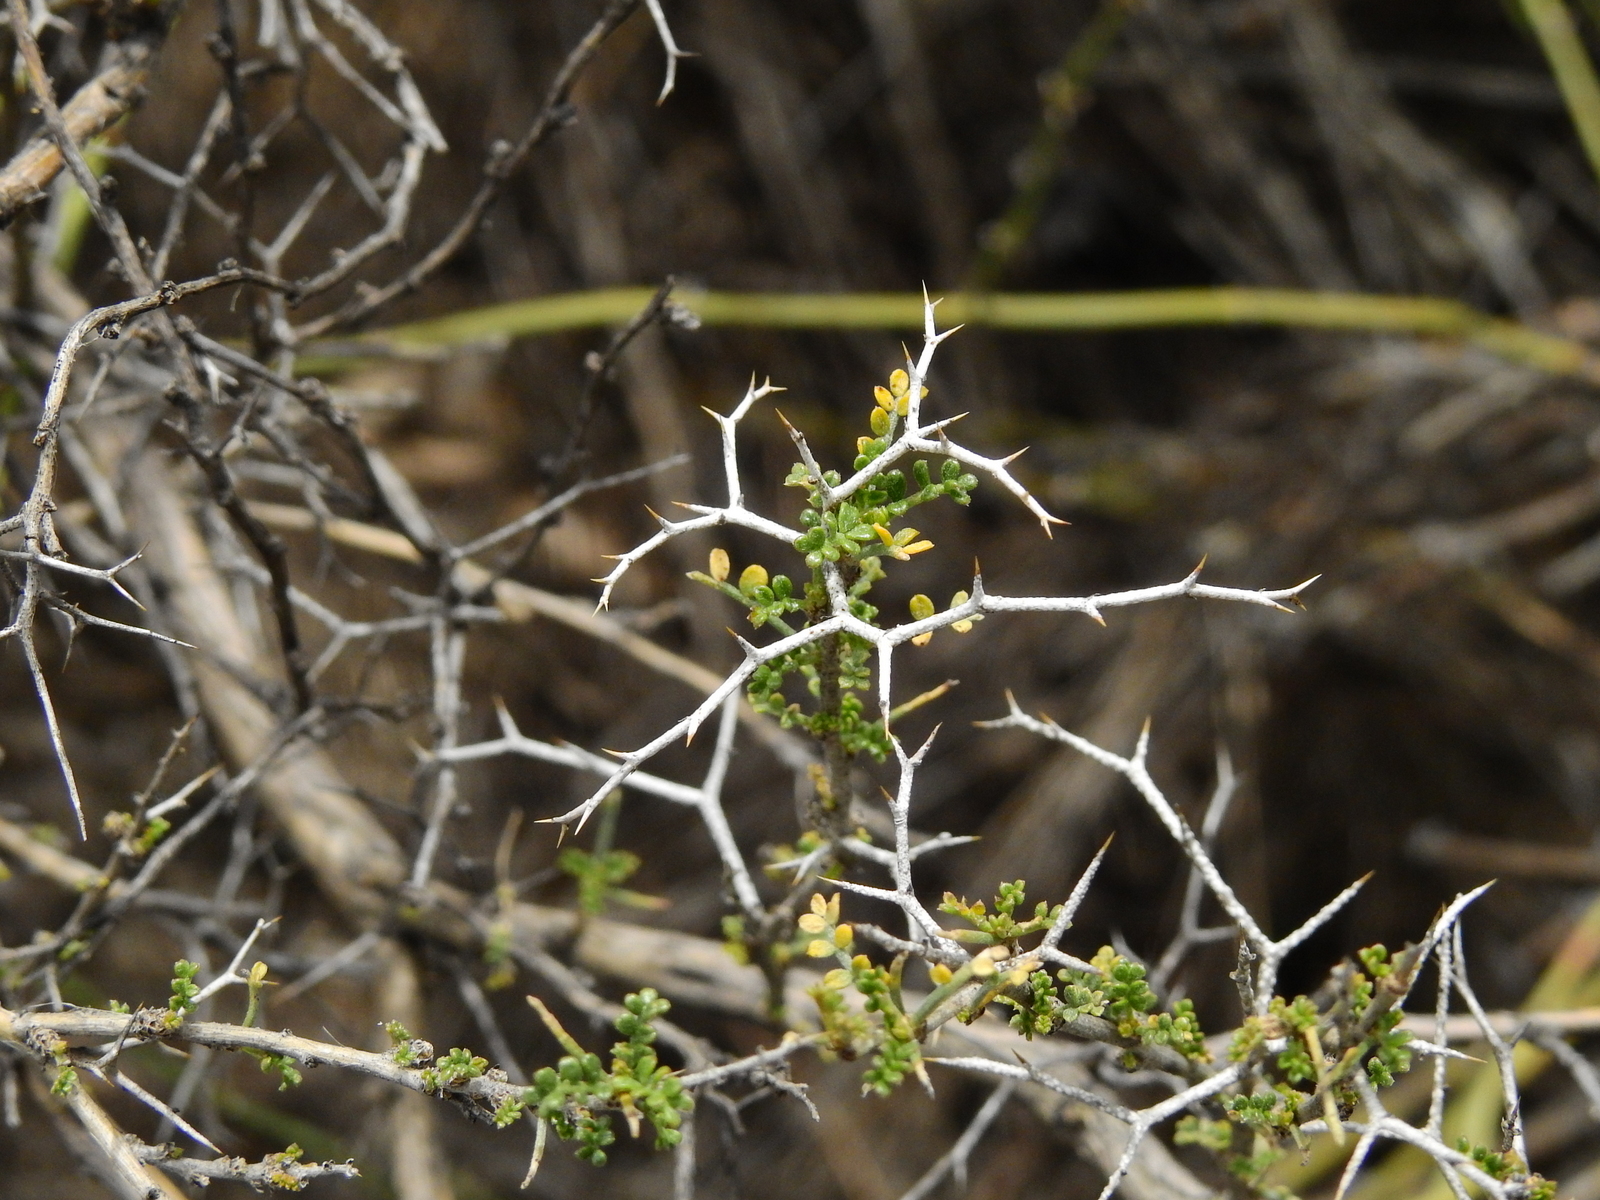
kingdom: Plantae
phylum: Tracheophyta
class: Magnoliopsida
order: Fabales
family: Fabaceae
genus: Adesmia
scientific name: Adesmia trijuga
